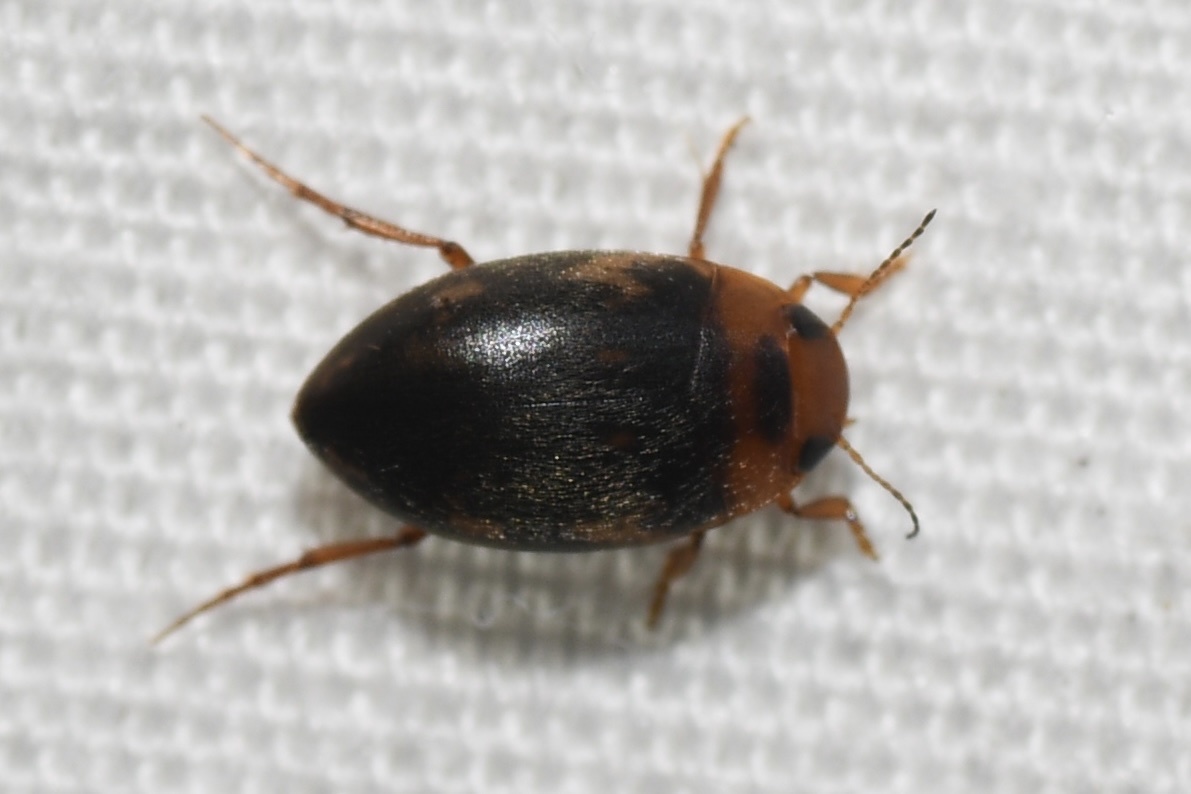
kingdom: Animalia
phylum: Arthropoda
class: Insecta
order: Coleoptera
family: Dytiscidae
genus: Neoporus
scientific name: Neoporus undulatus
